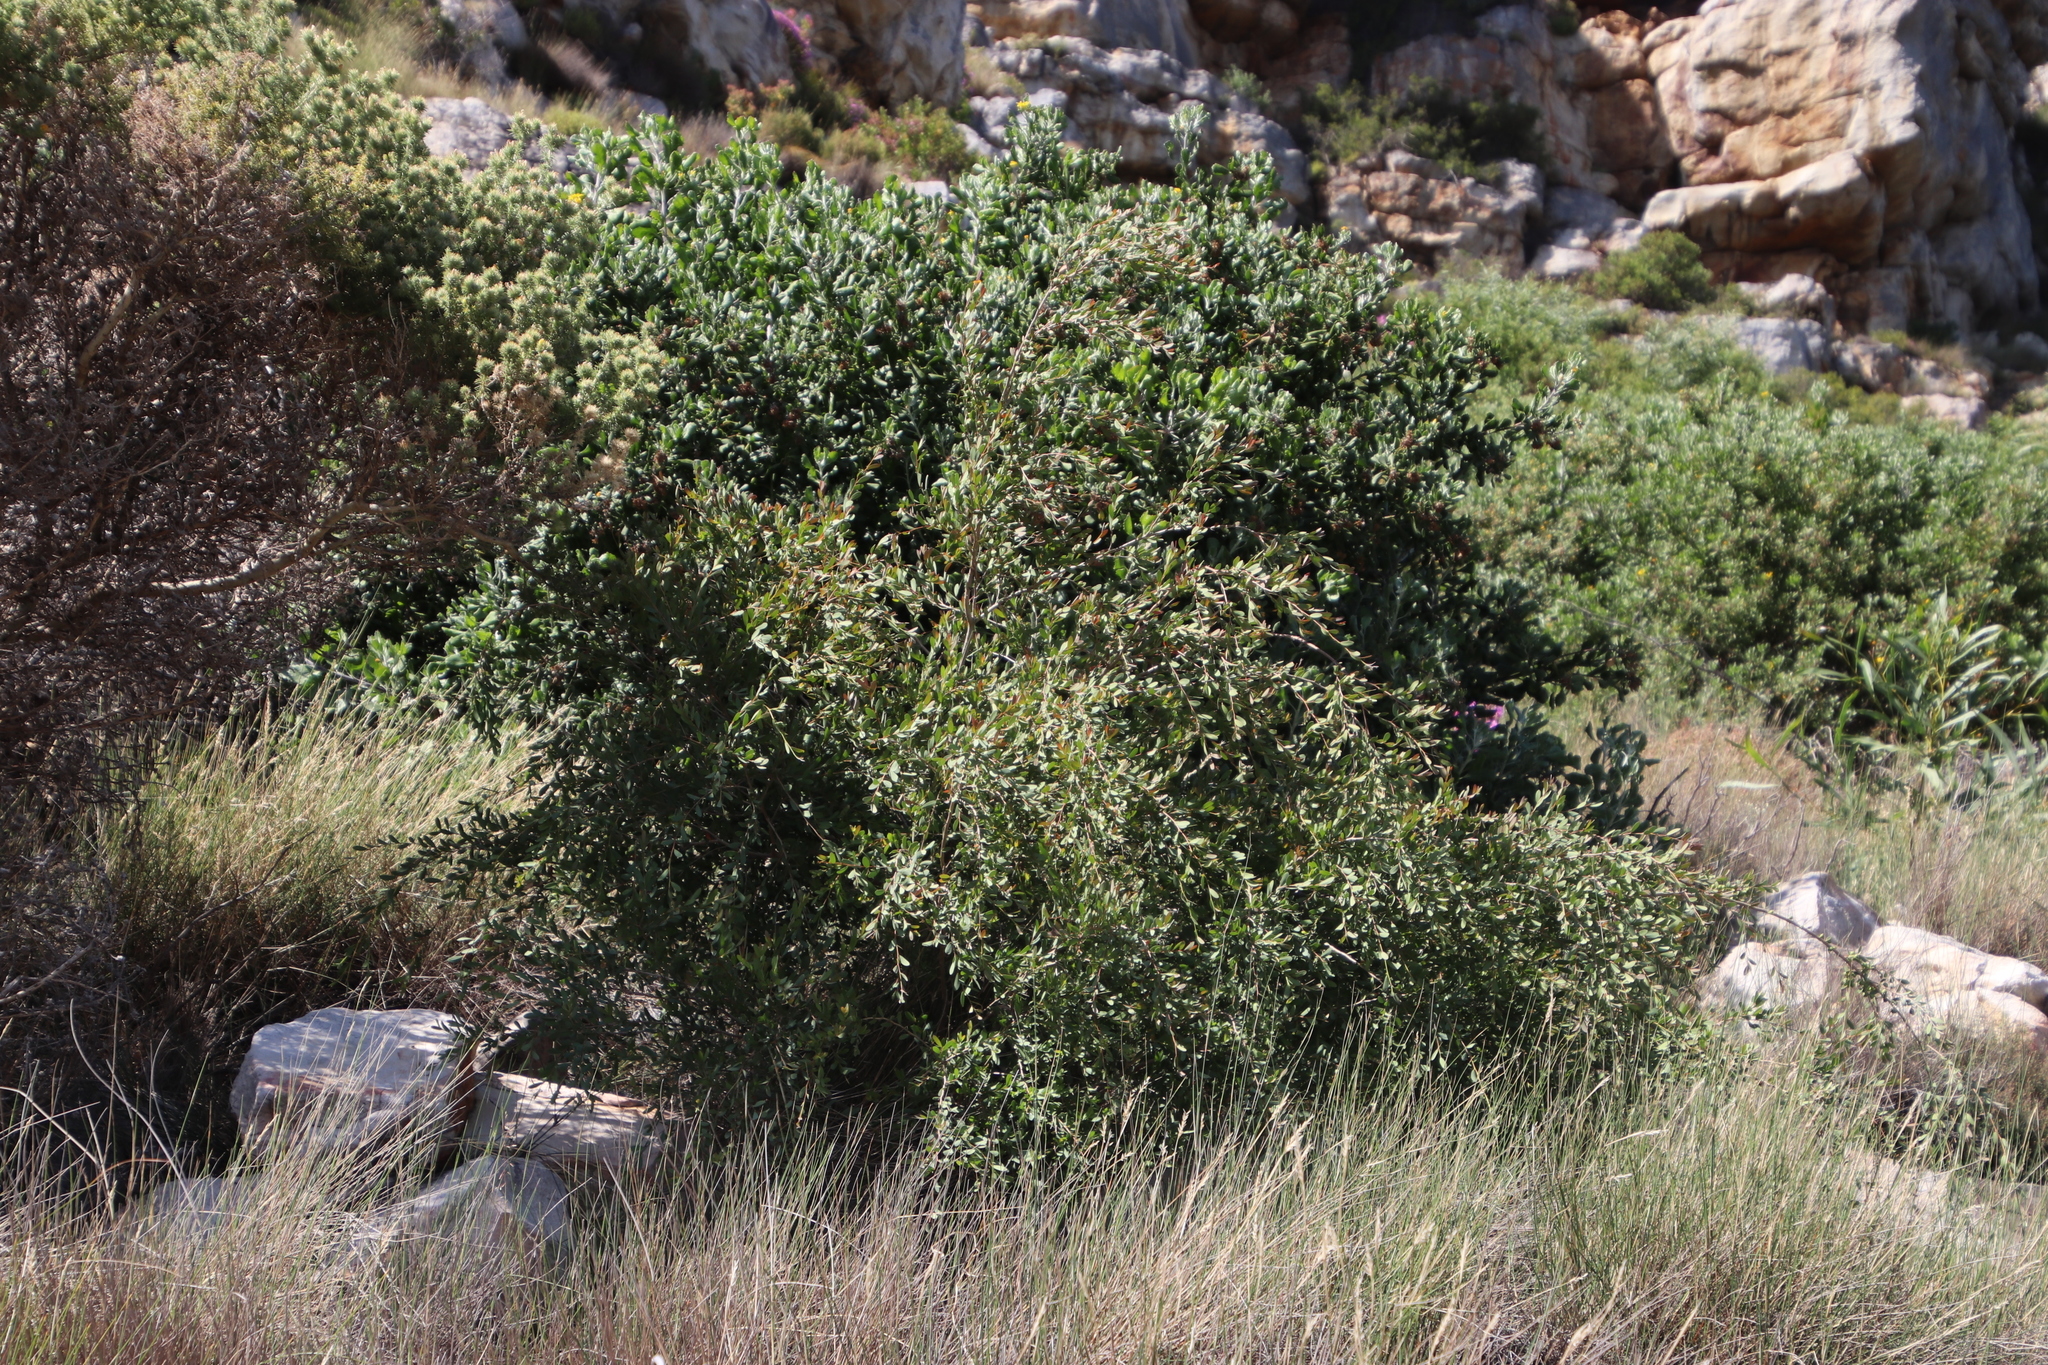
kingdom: Plantae
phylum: Tracheophyta
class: Magnoliopsida
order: Myrtales
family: Myrtaceae
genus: Leptospermum
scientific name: Leptospermum laevigatum
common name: Australian teatree
